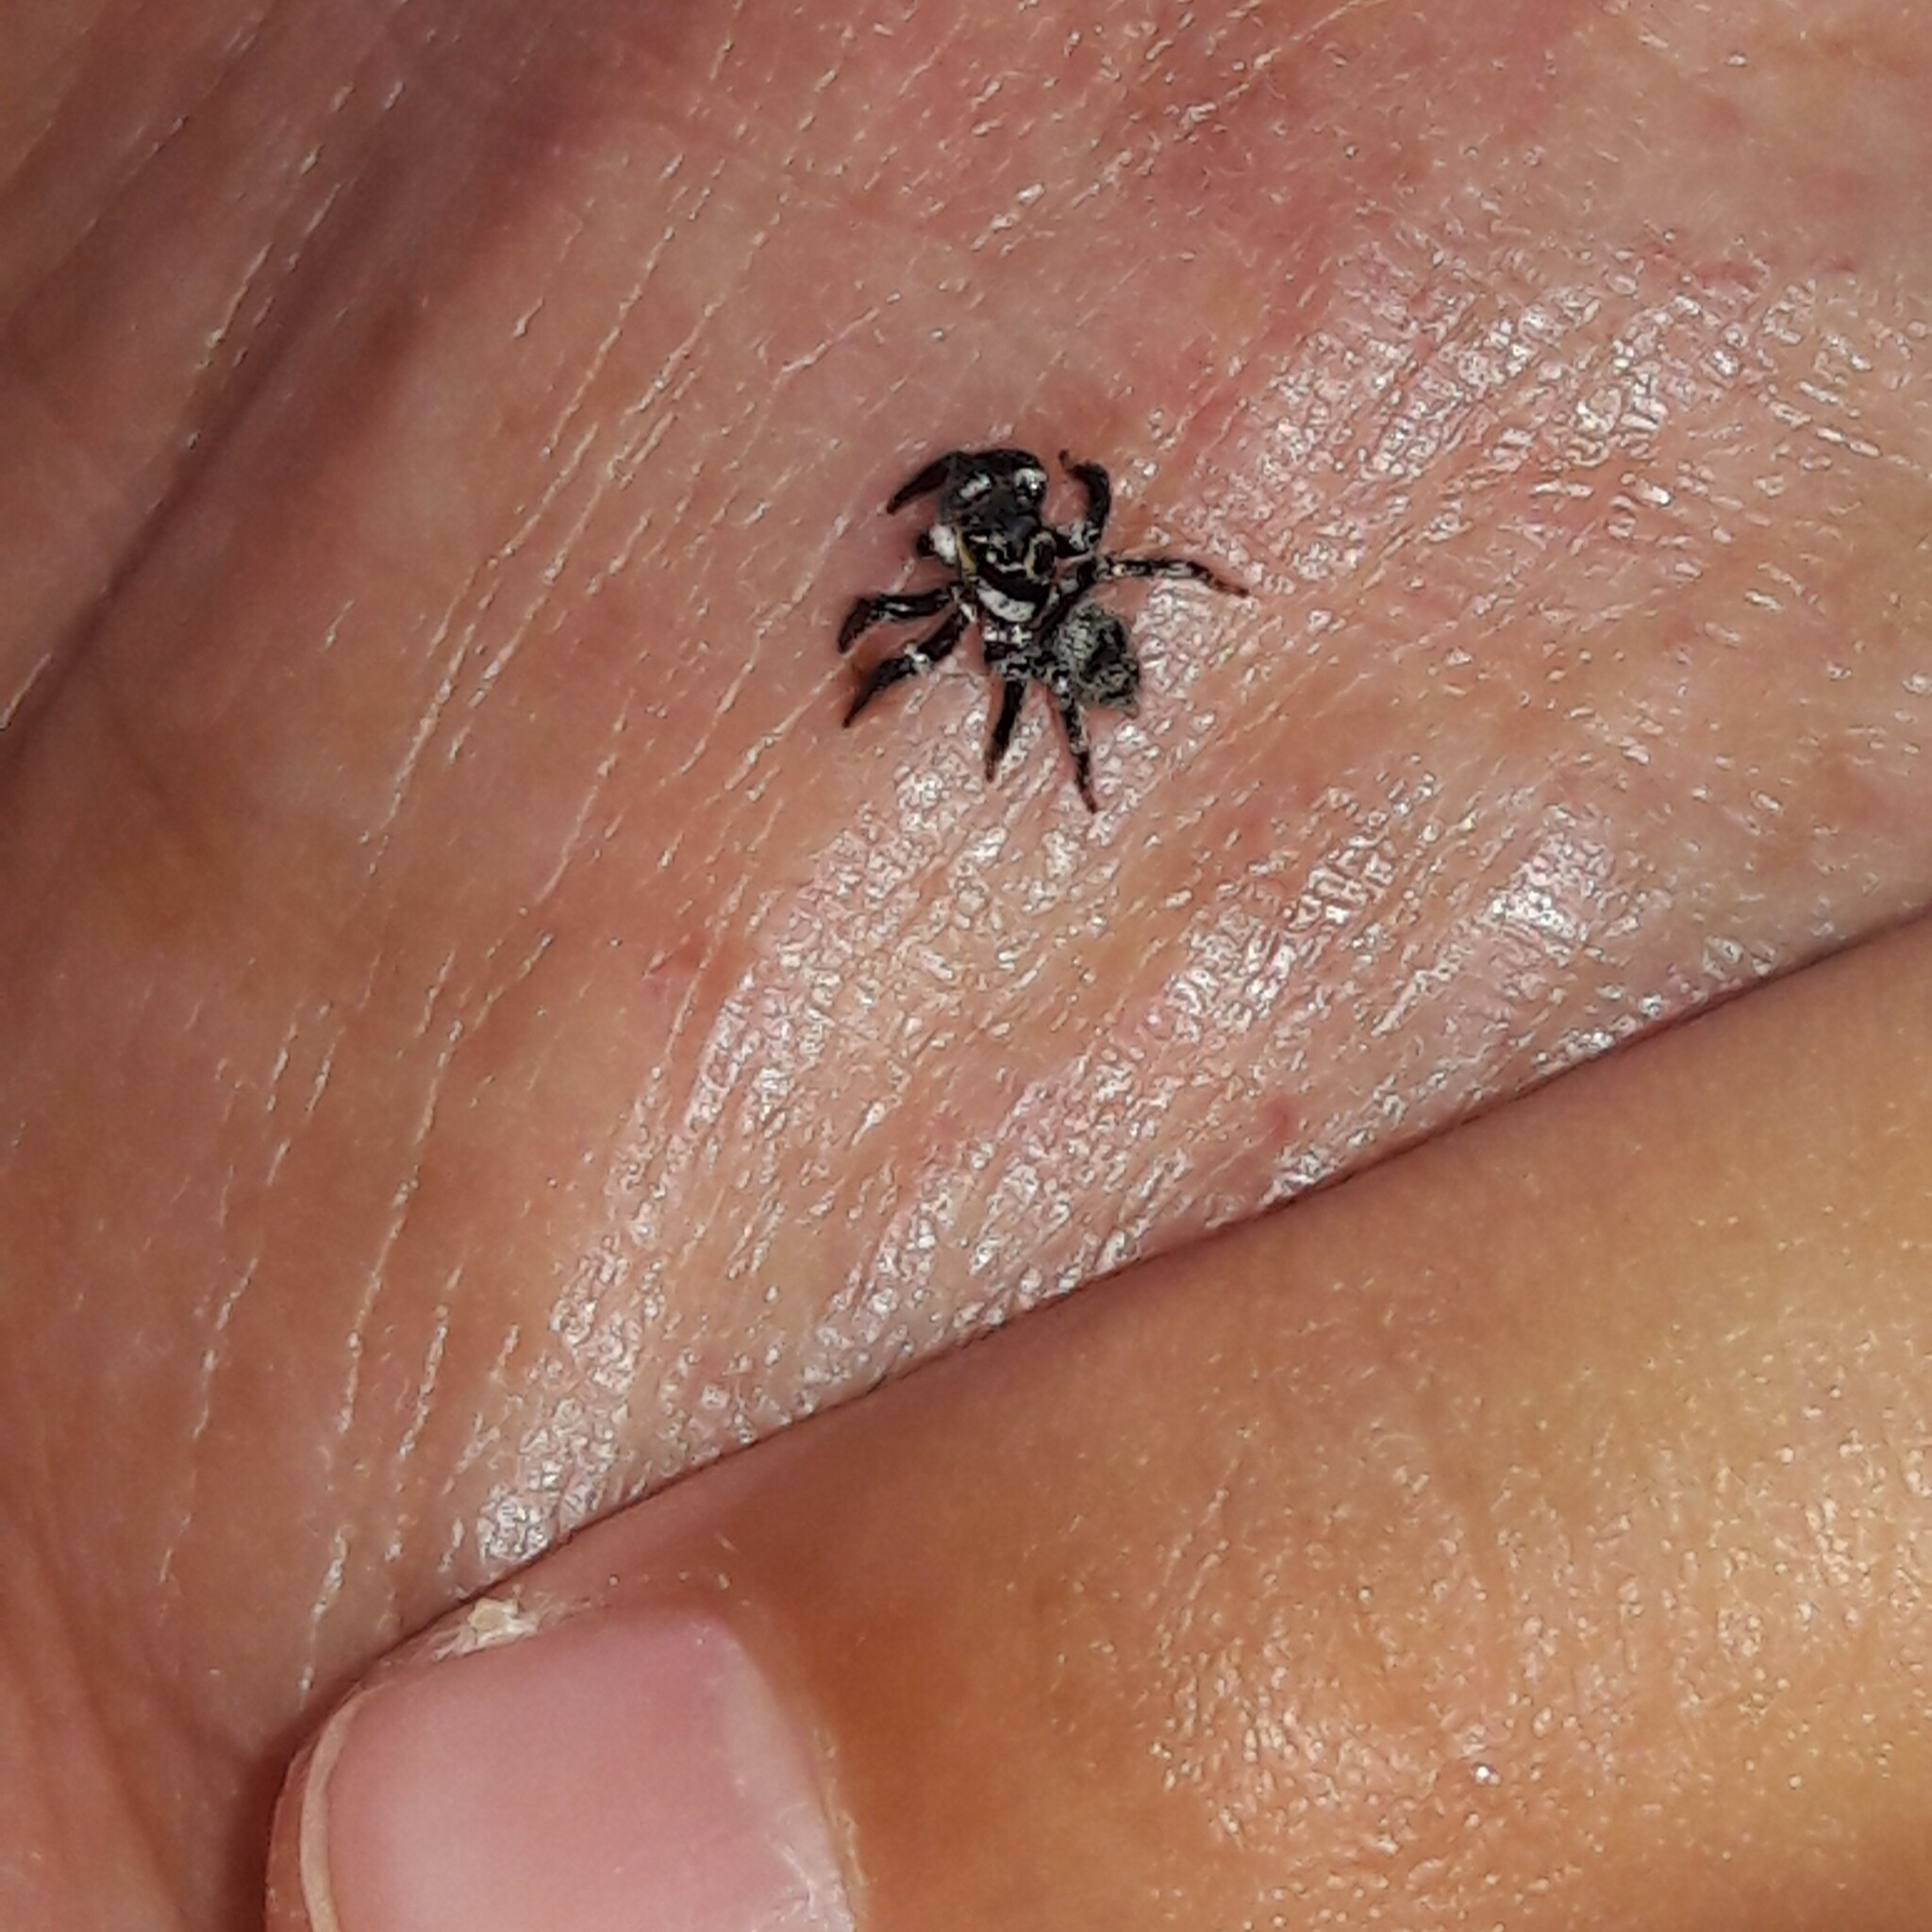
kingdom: Animalia
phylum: Arthropoda
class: Arachnida
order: Araneae
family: Salticidae
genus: Corythalia
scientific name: Corythalia conferta
